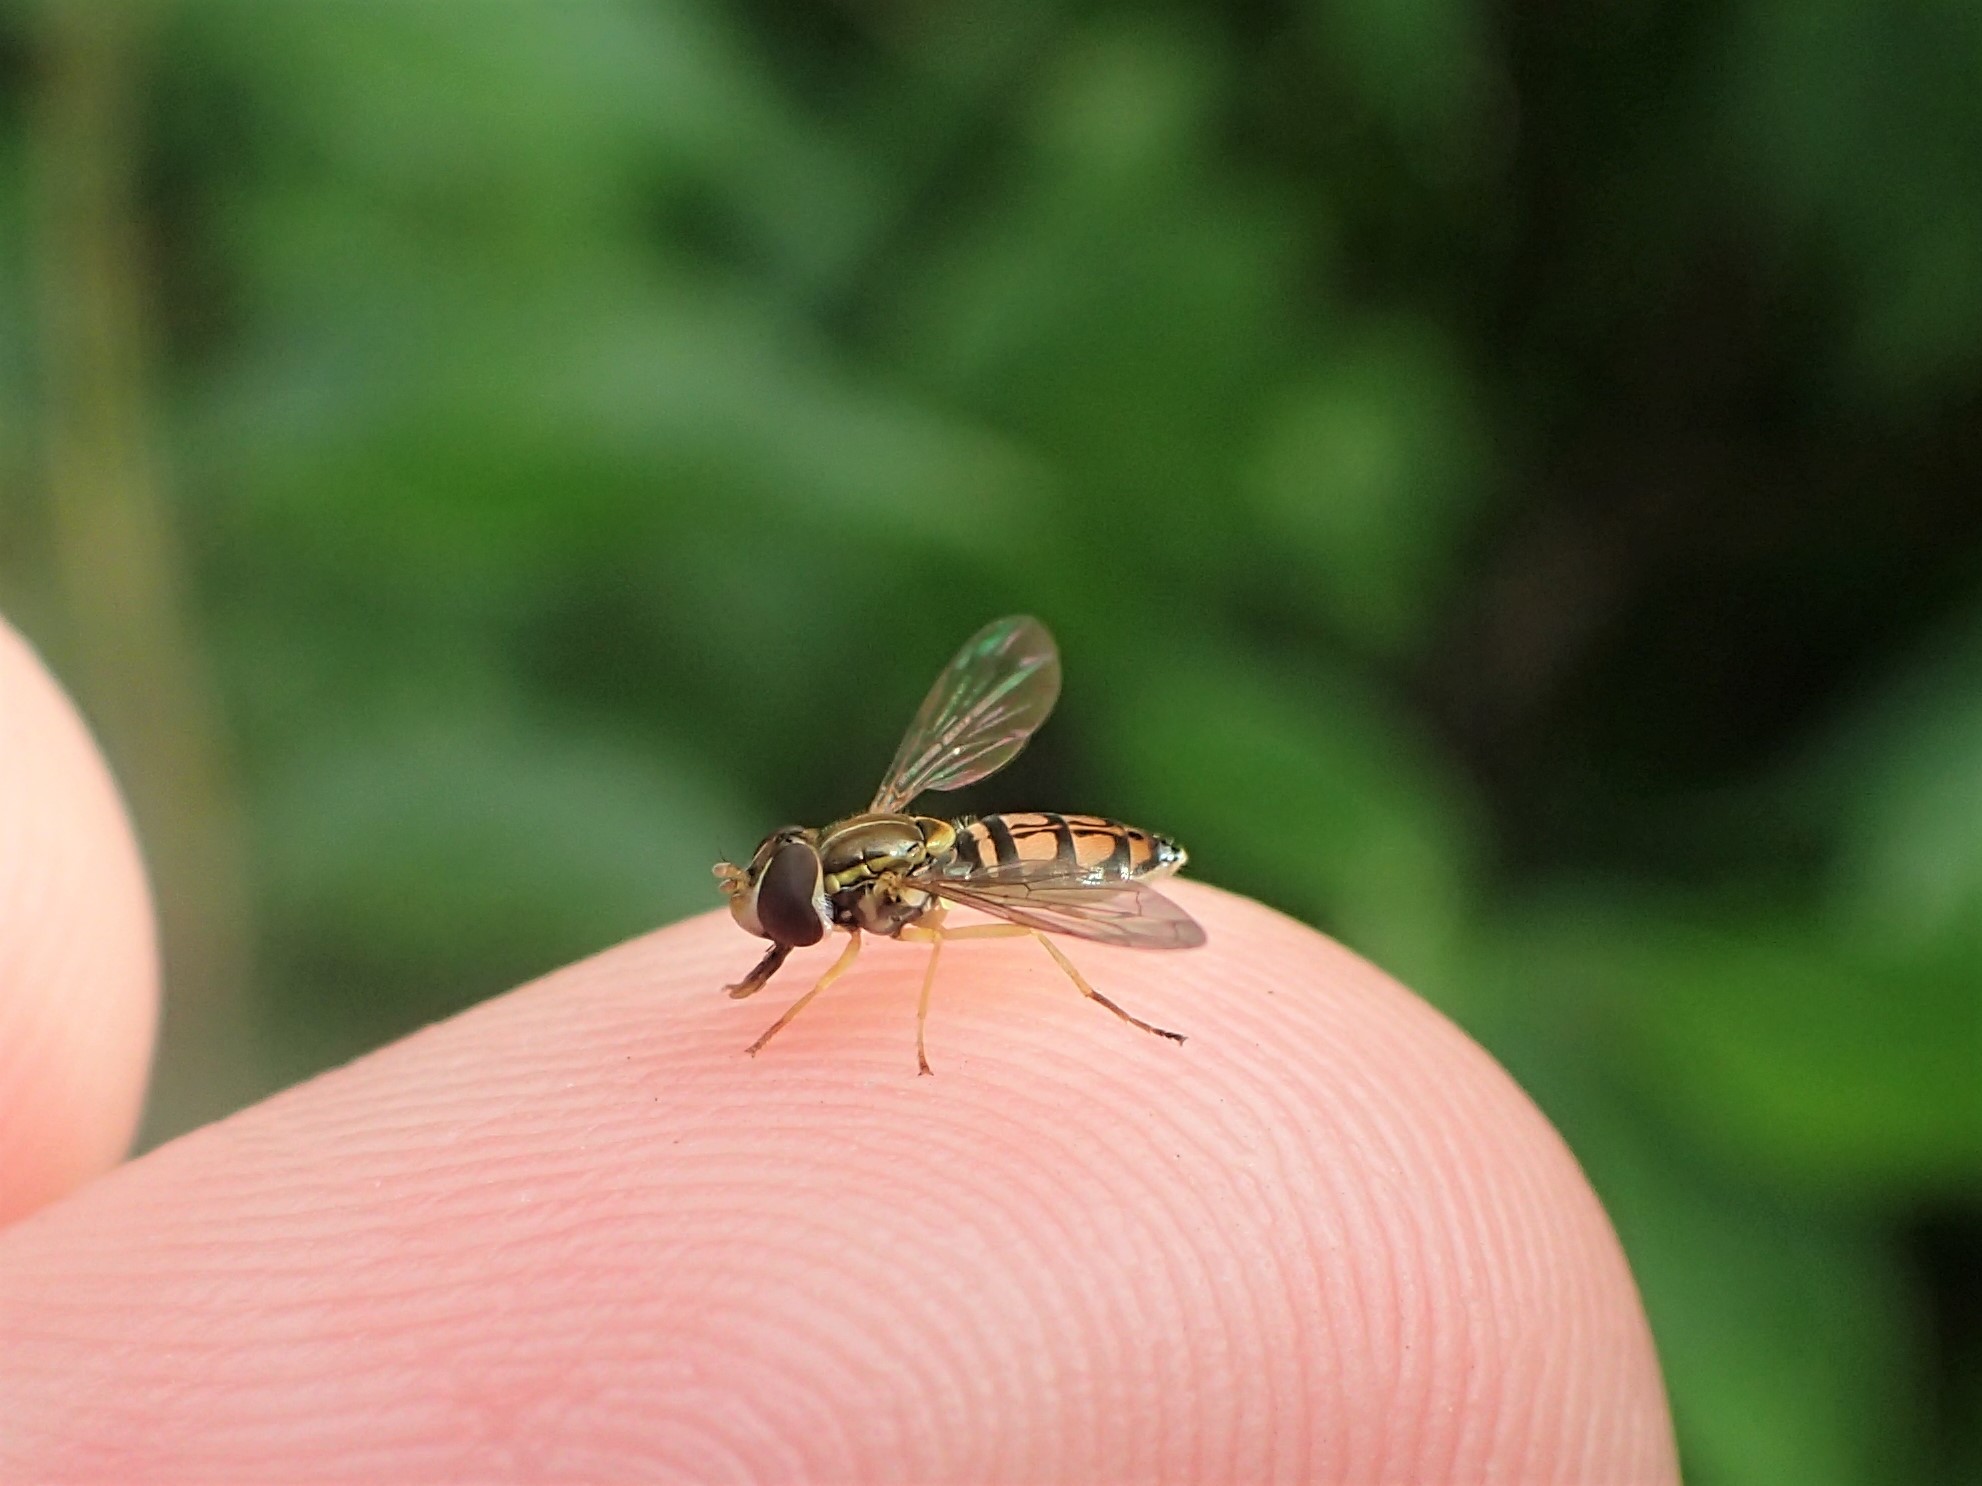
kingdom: Animalia
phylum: Arthropoda
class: Insecta
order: Diptera
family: Syrphidae
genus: Toxomerus
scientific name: Toxomerus marginatus
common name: Syrphid fly
